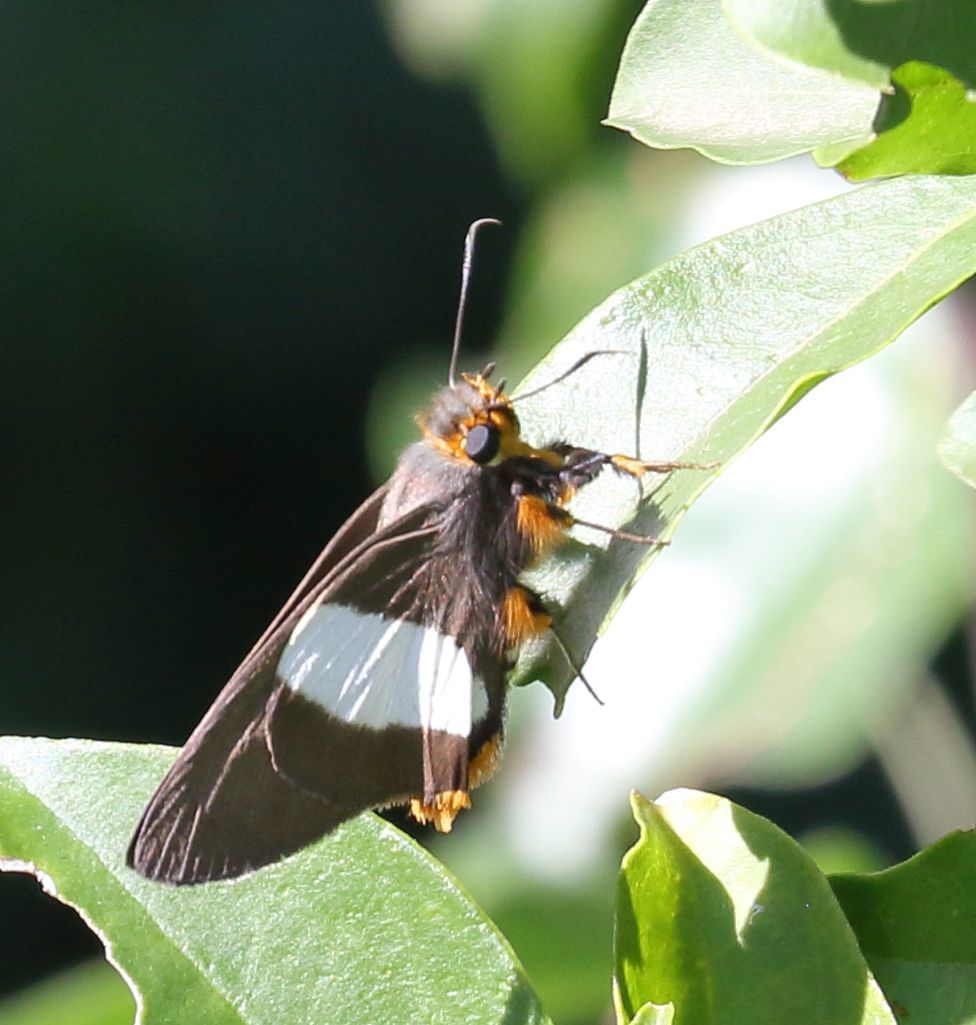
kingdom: Animalia
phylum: Arthropoda
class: Insecta
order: Lepidoptera
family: Hesperiidae
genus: Coeliades
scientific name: Coeliades forestan
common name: Striped policeman
